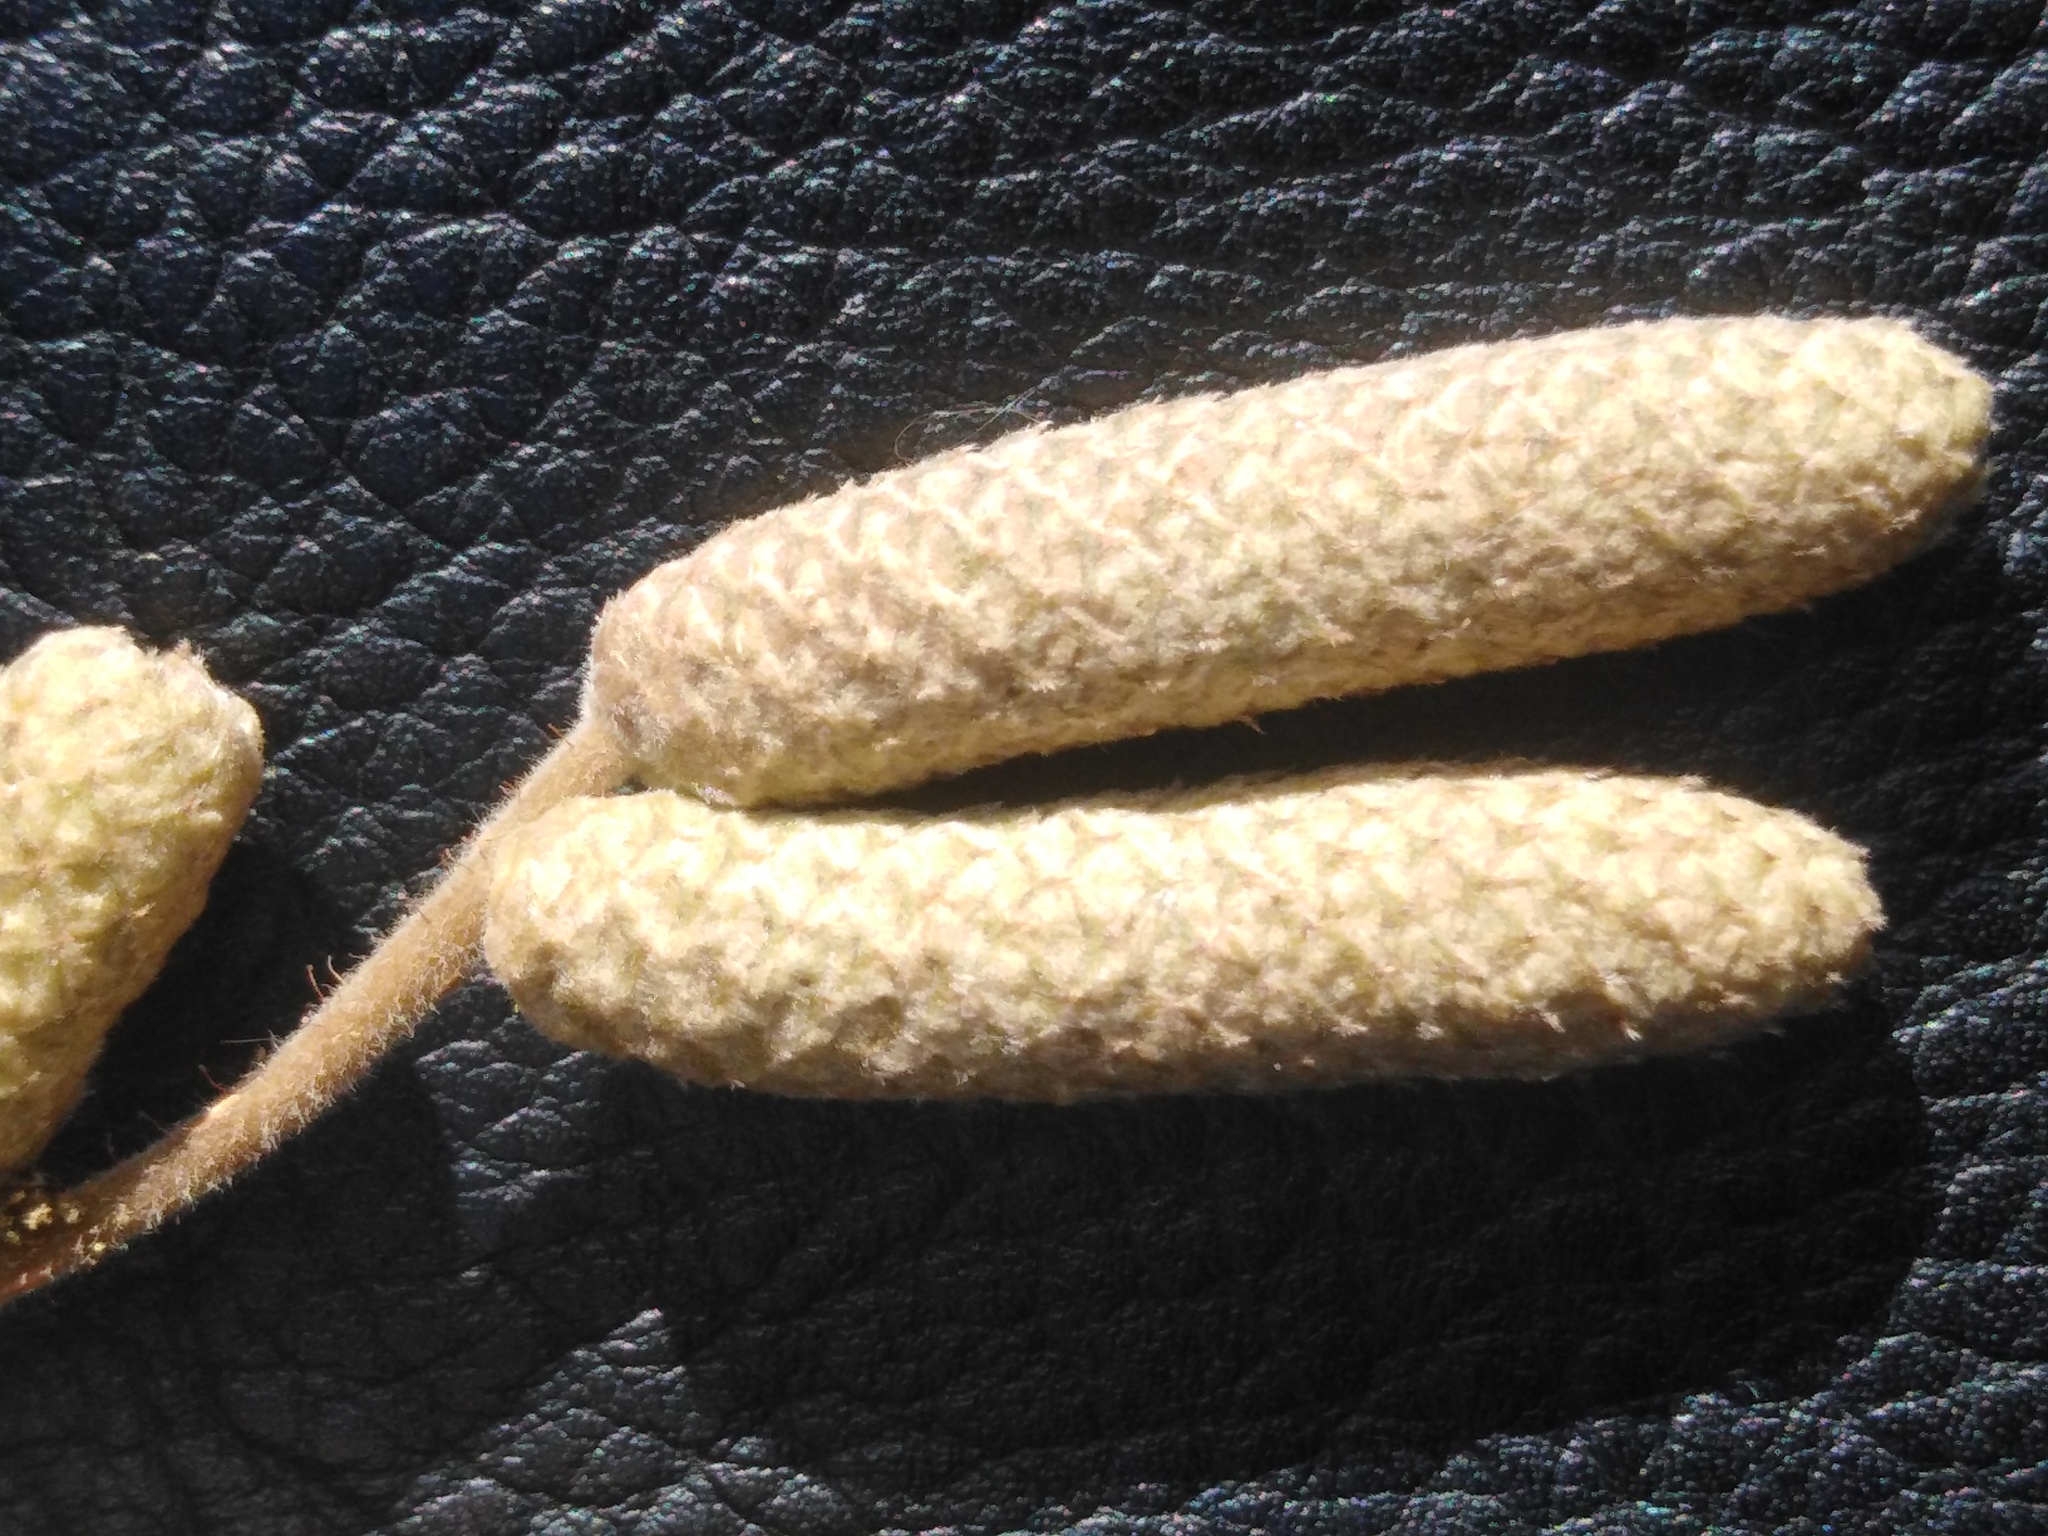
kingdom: Plantae
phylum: Tracheophyta
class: Magnoliopsida
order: Fagales
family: Betulaceae
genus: Corylus
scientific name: Corylus avellana
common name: European hazel
